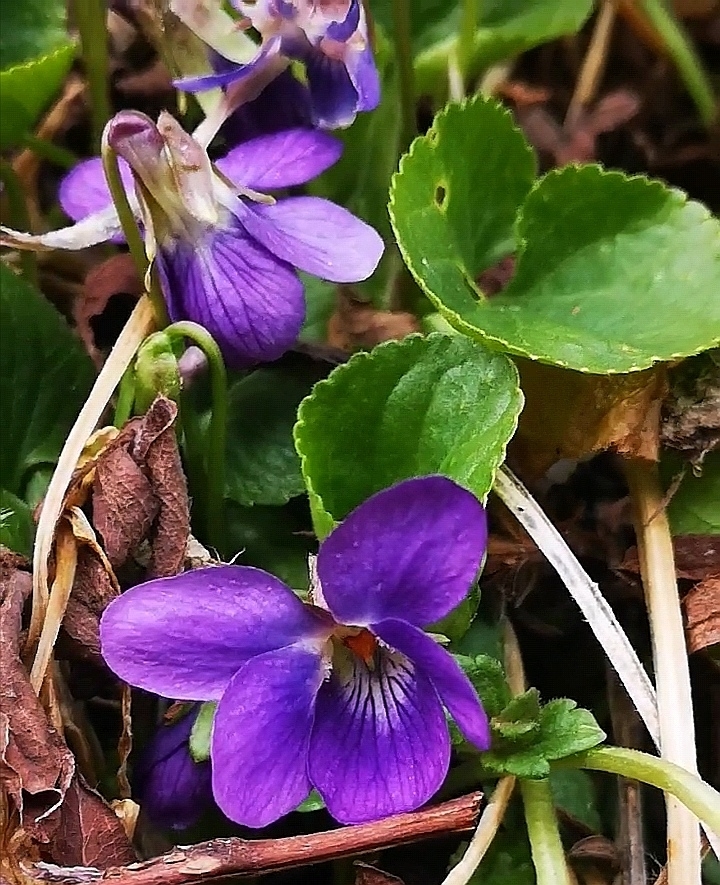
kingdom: Plantae
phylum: Tracheophyta
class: Magnoliopsida
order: Malpighiales
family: Violaceae
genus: Viola
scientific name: Viola odorata
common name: Sweet violet
